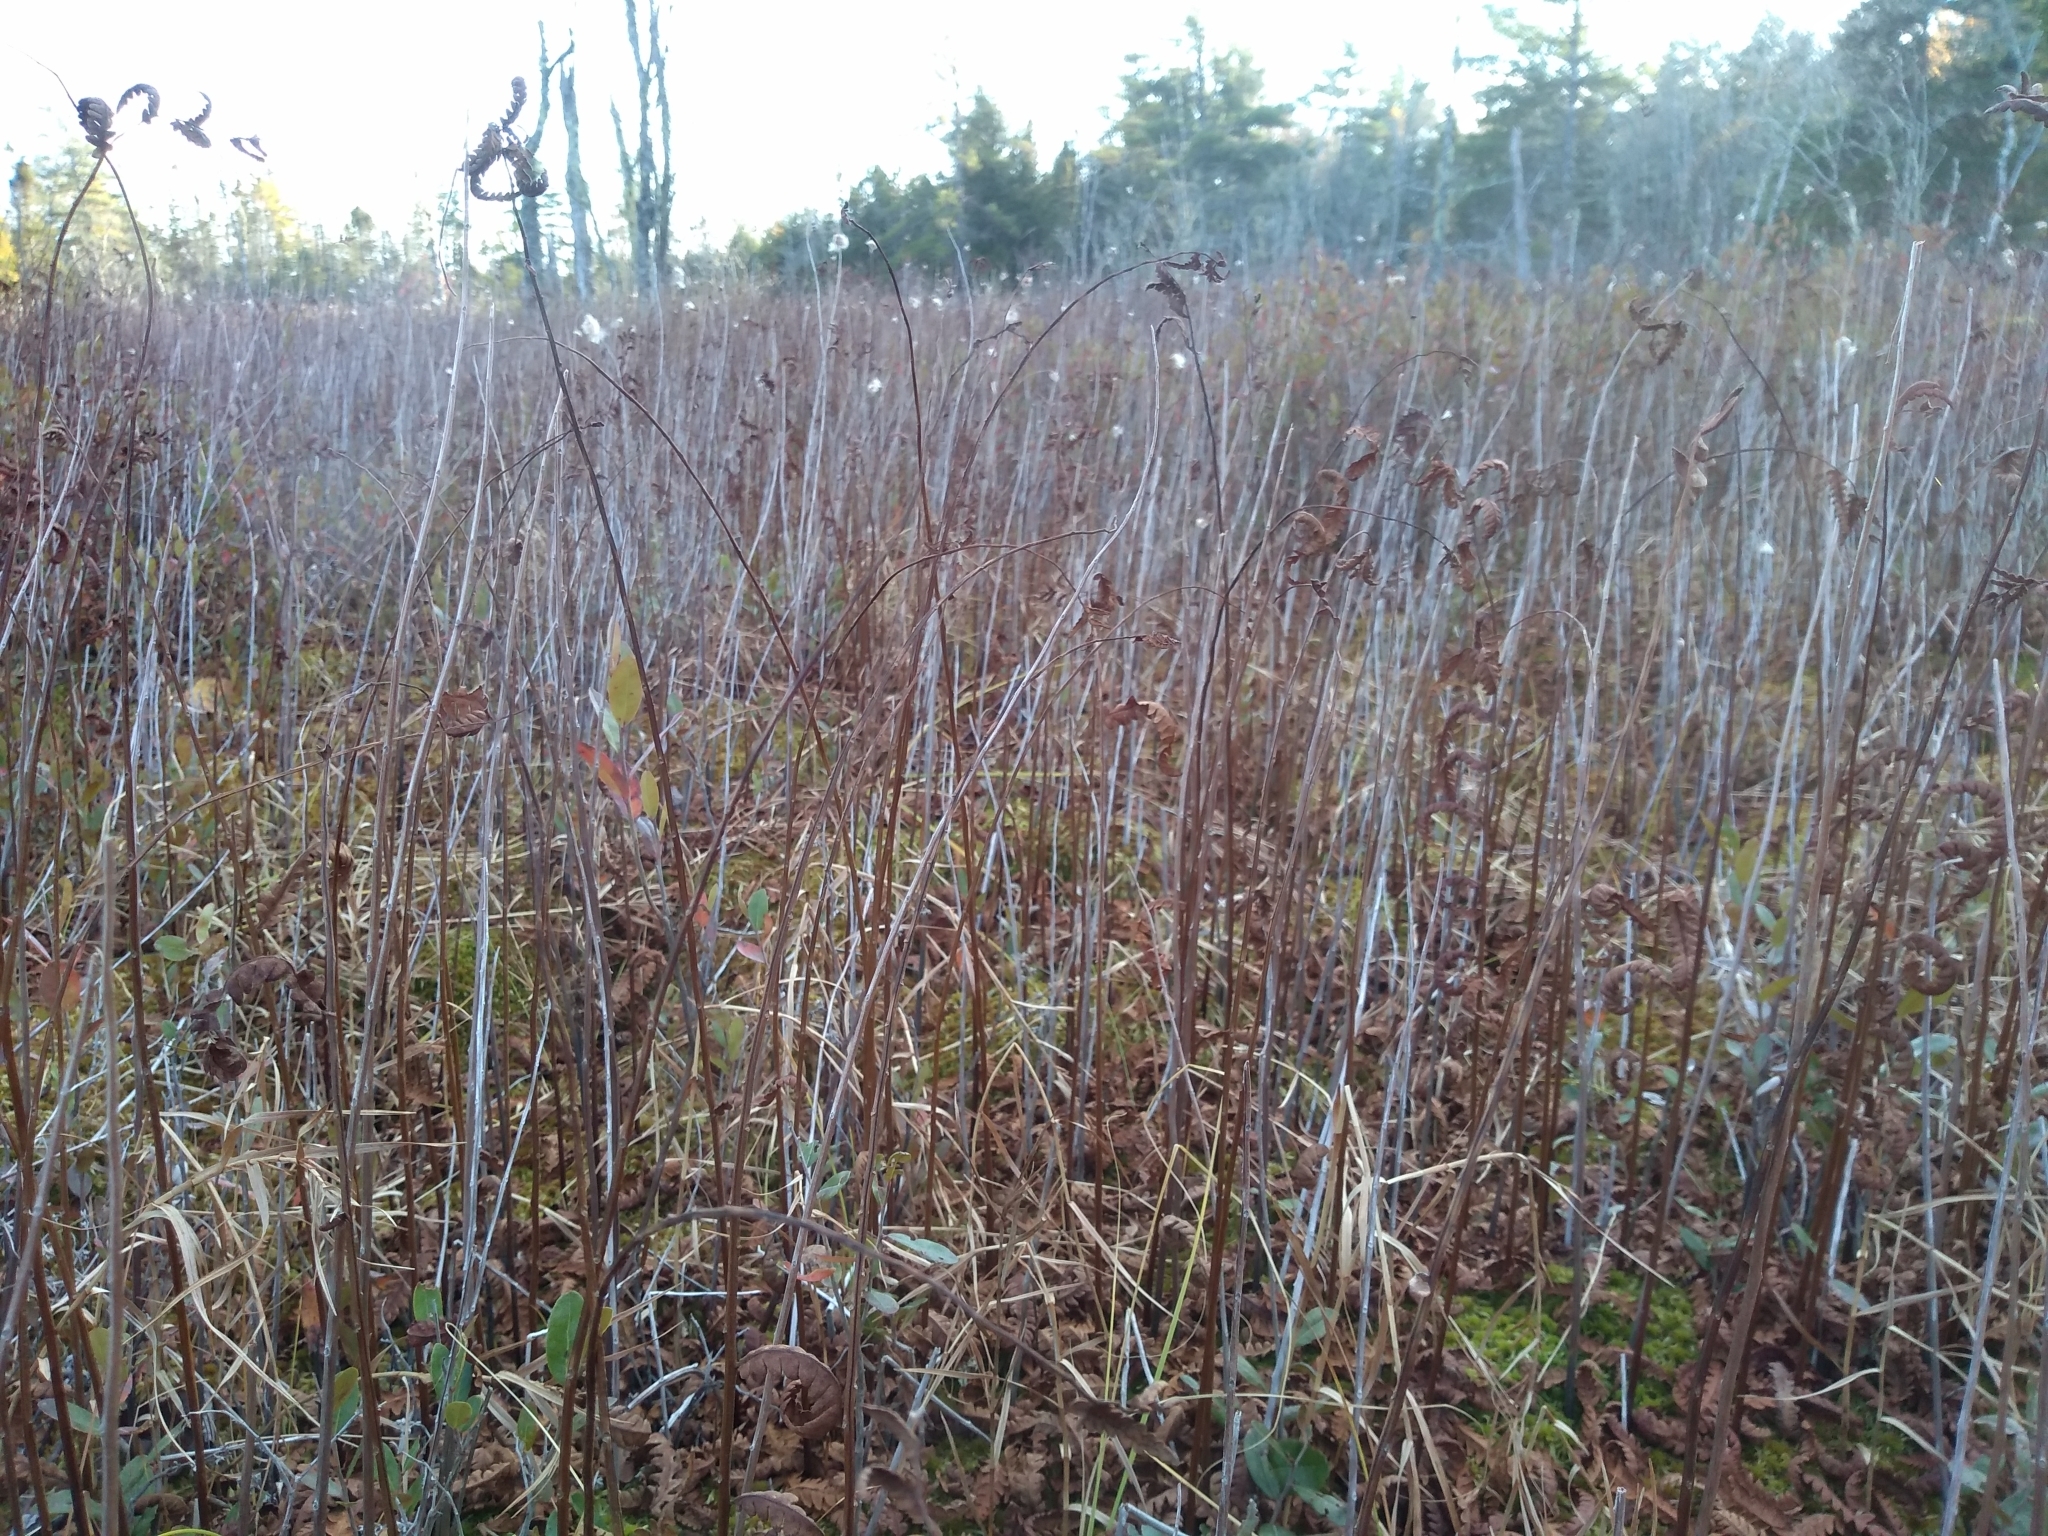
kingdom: Plantae
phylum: Tracheophyta
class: Polypodiopsida
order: Polypodiales
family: Blechnaceae
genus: Anchistea
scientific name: Anchistea virginica
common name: Virginia chain fern
